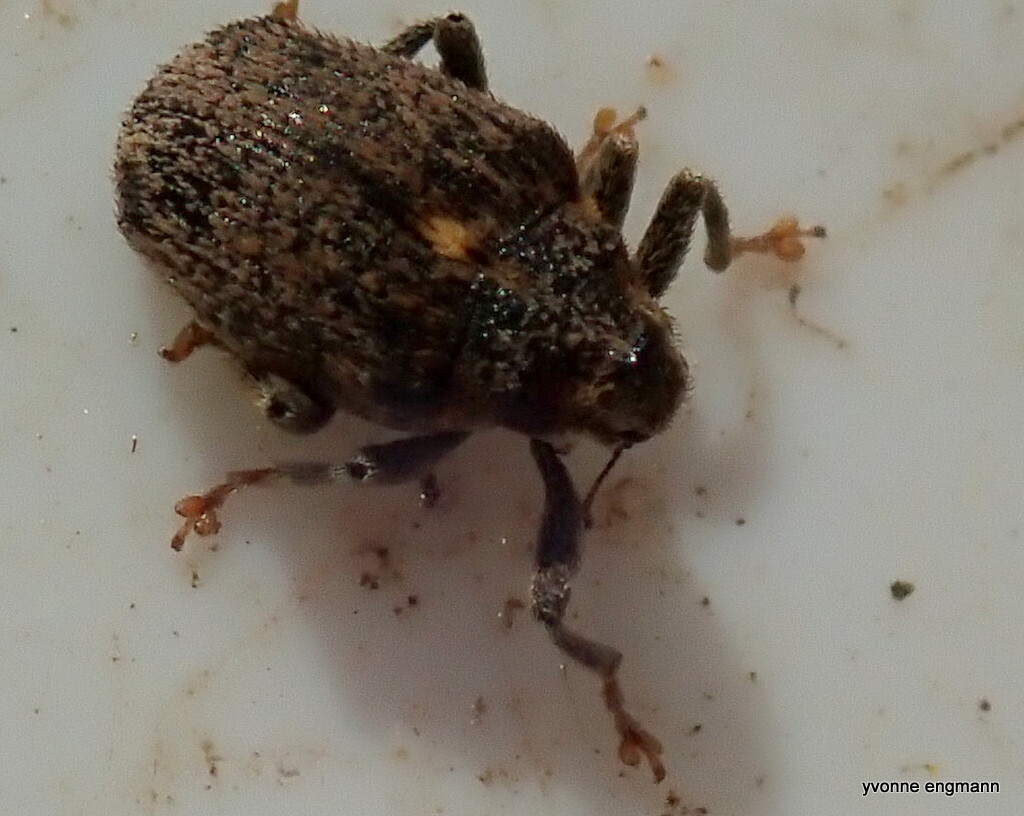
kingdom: Animalia
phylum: Arthropoda
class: Insecta
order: Coleoptera
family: Curculionidae
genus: Ceutorhynchus
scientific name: Ceutorhynchus pallidactylus
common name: Cabbage stem weavil
